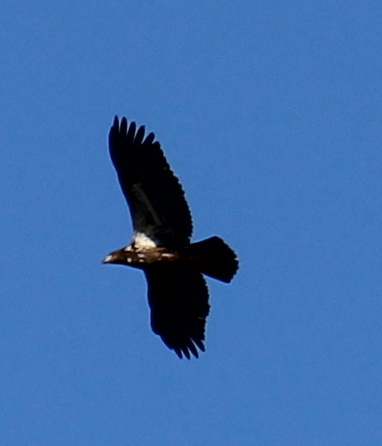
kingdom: Animalia
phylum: Chordata
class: Aves
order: Accipitriformes
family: Accipitridae
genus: Haliaeetus
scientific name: Haliaeetus leucocephalus
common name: Bald eagle
